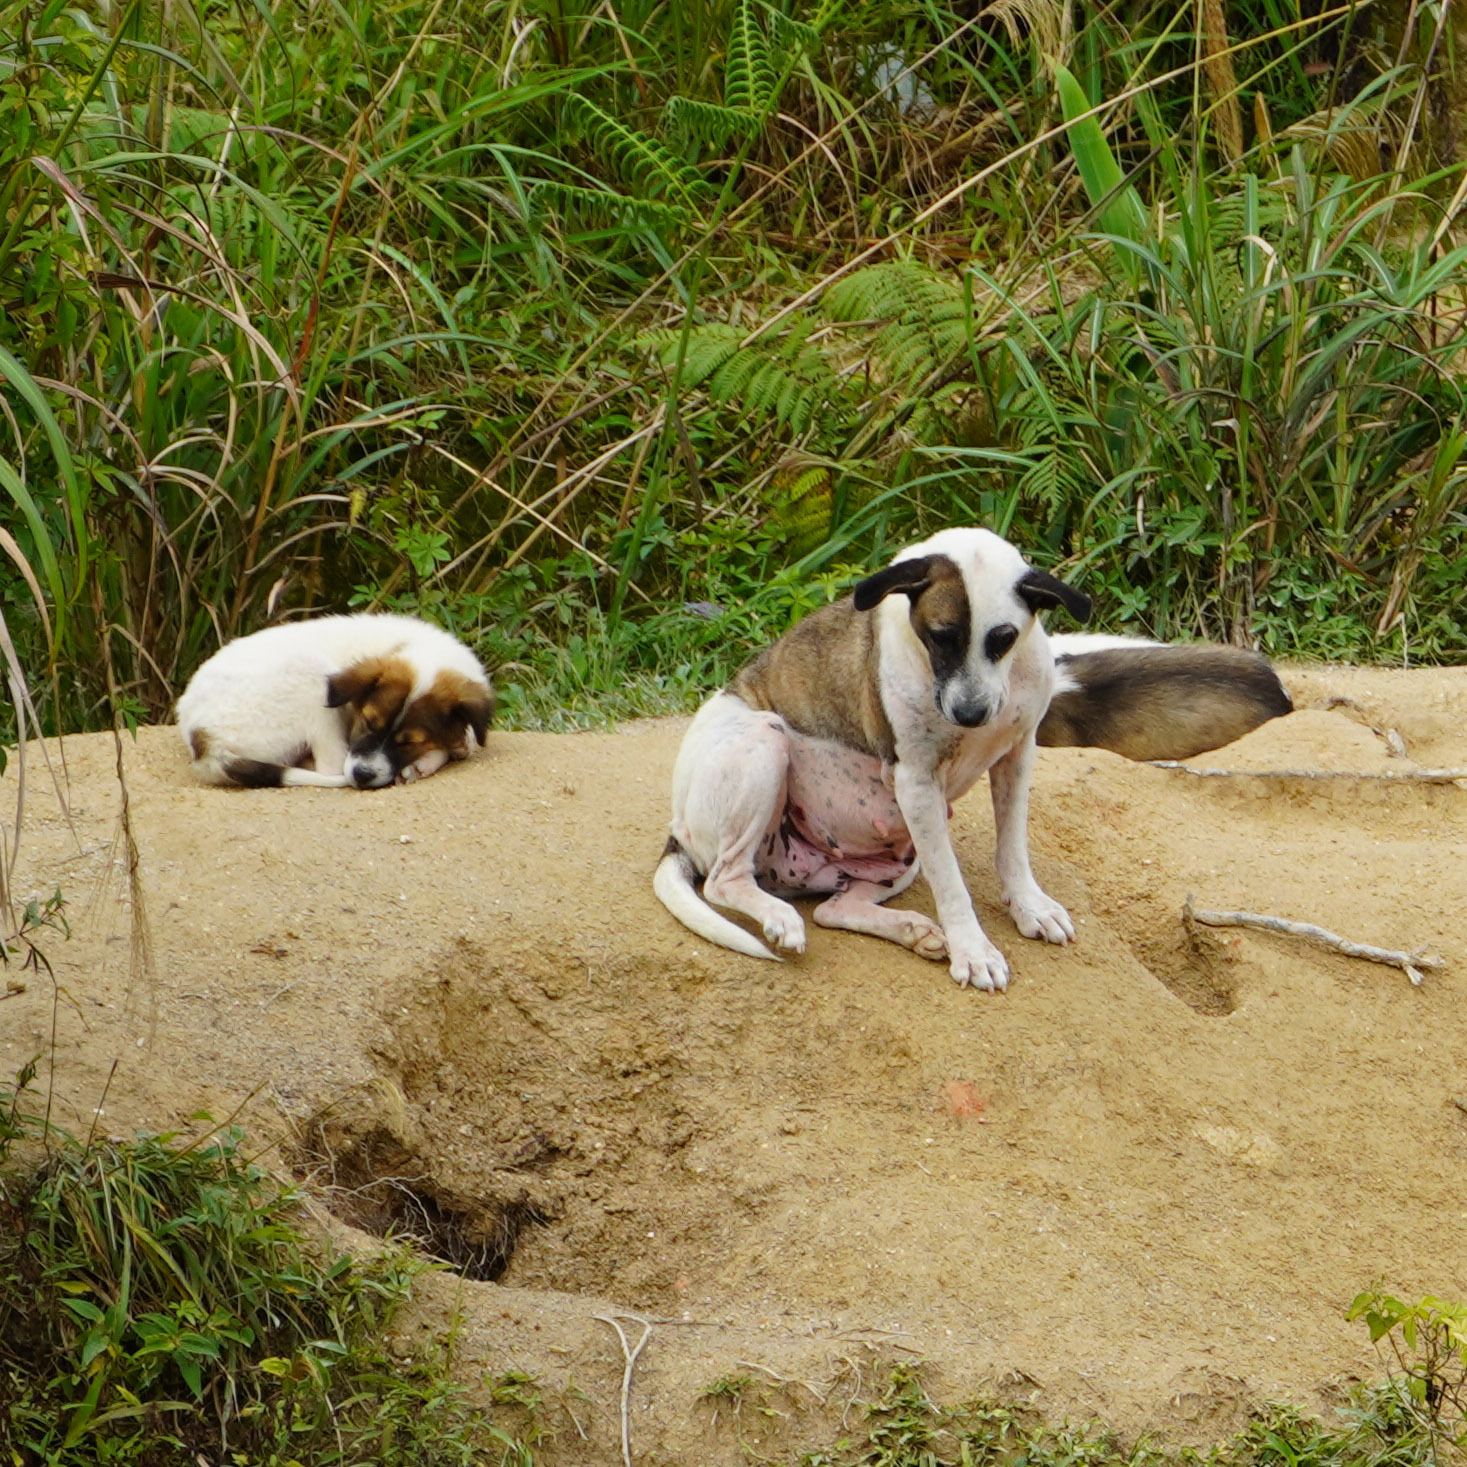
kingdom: Animalia
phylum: Chordata
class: Mammalia
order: Carnivora
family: Canidae
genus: Canis
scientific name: Canis lupus
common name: Gray wolf
